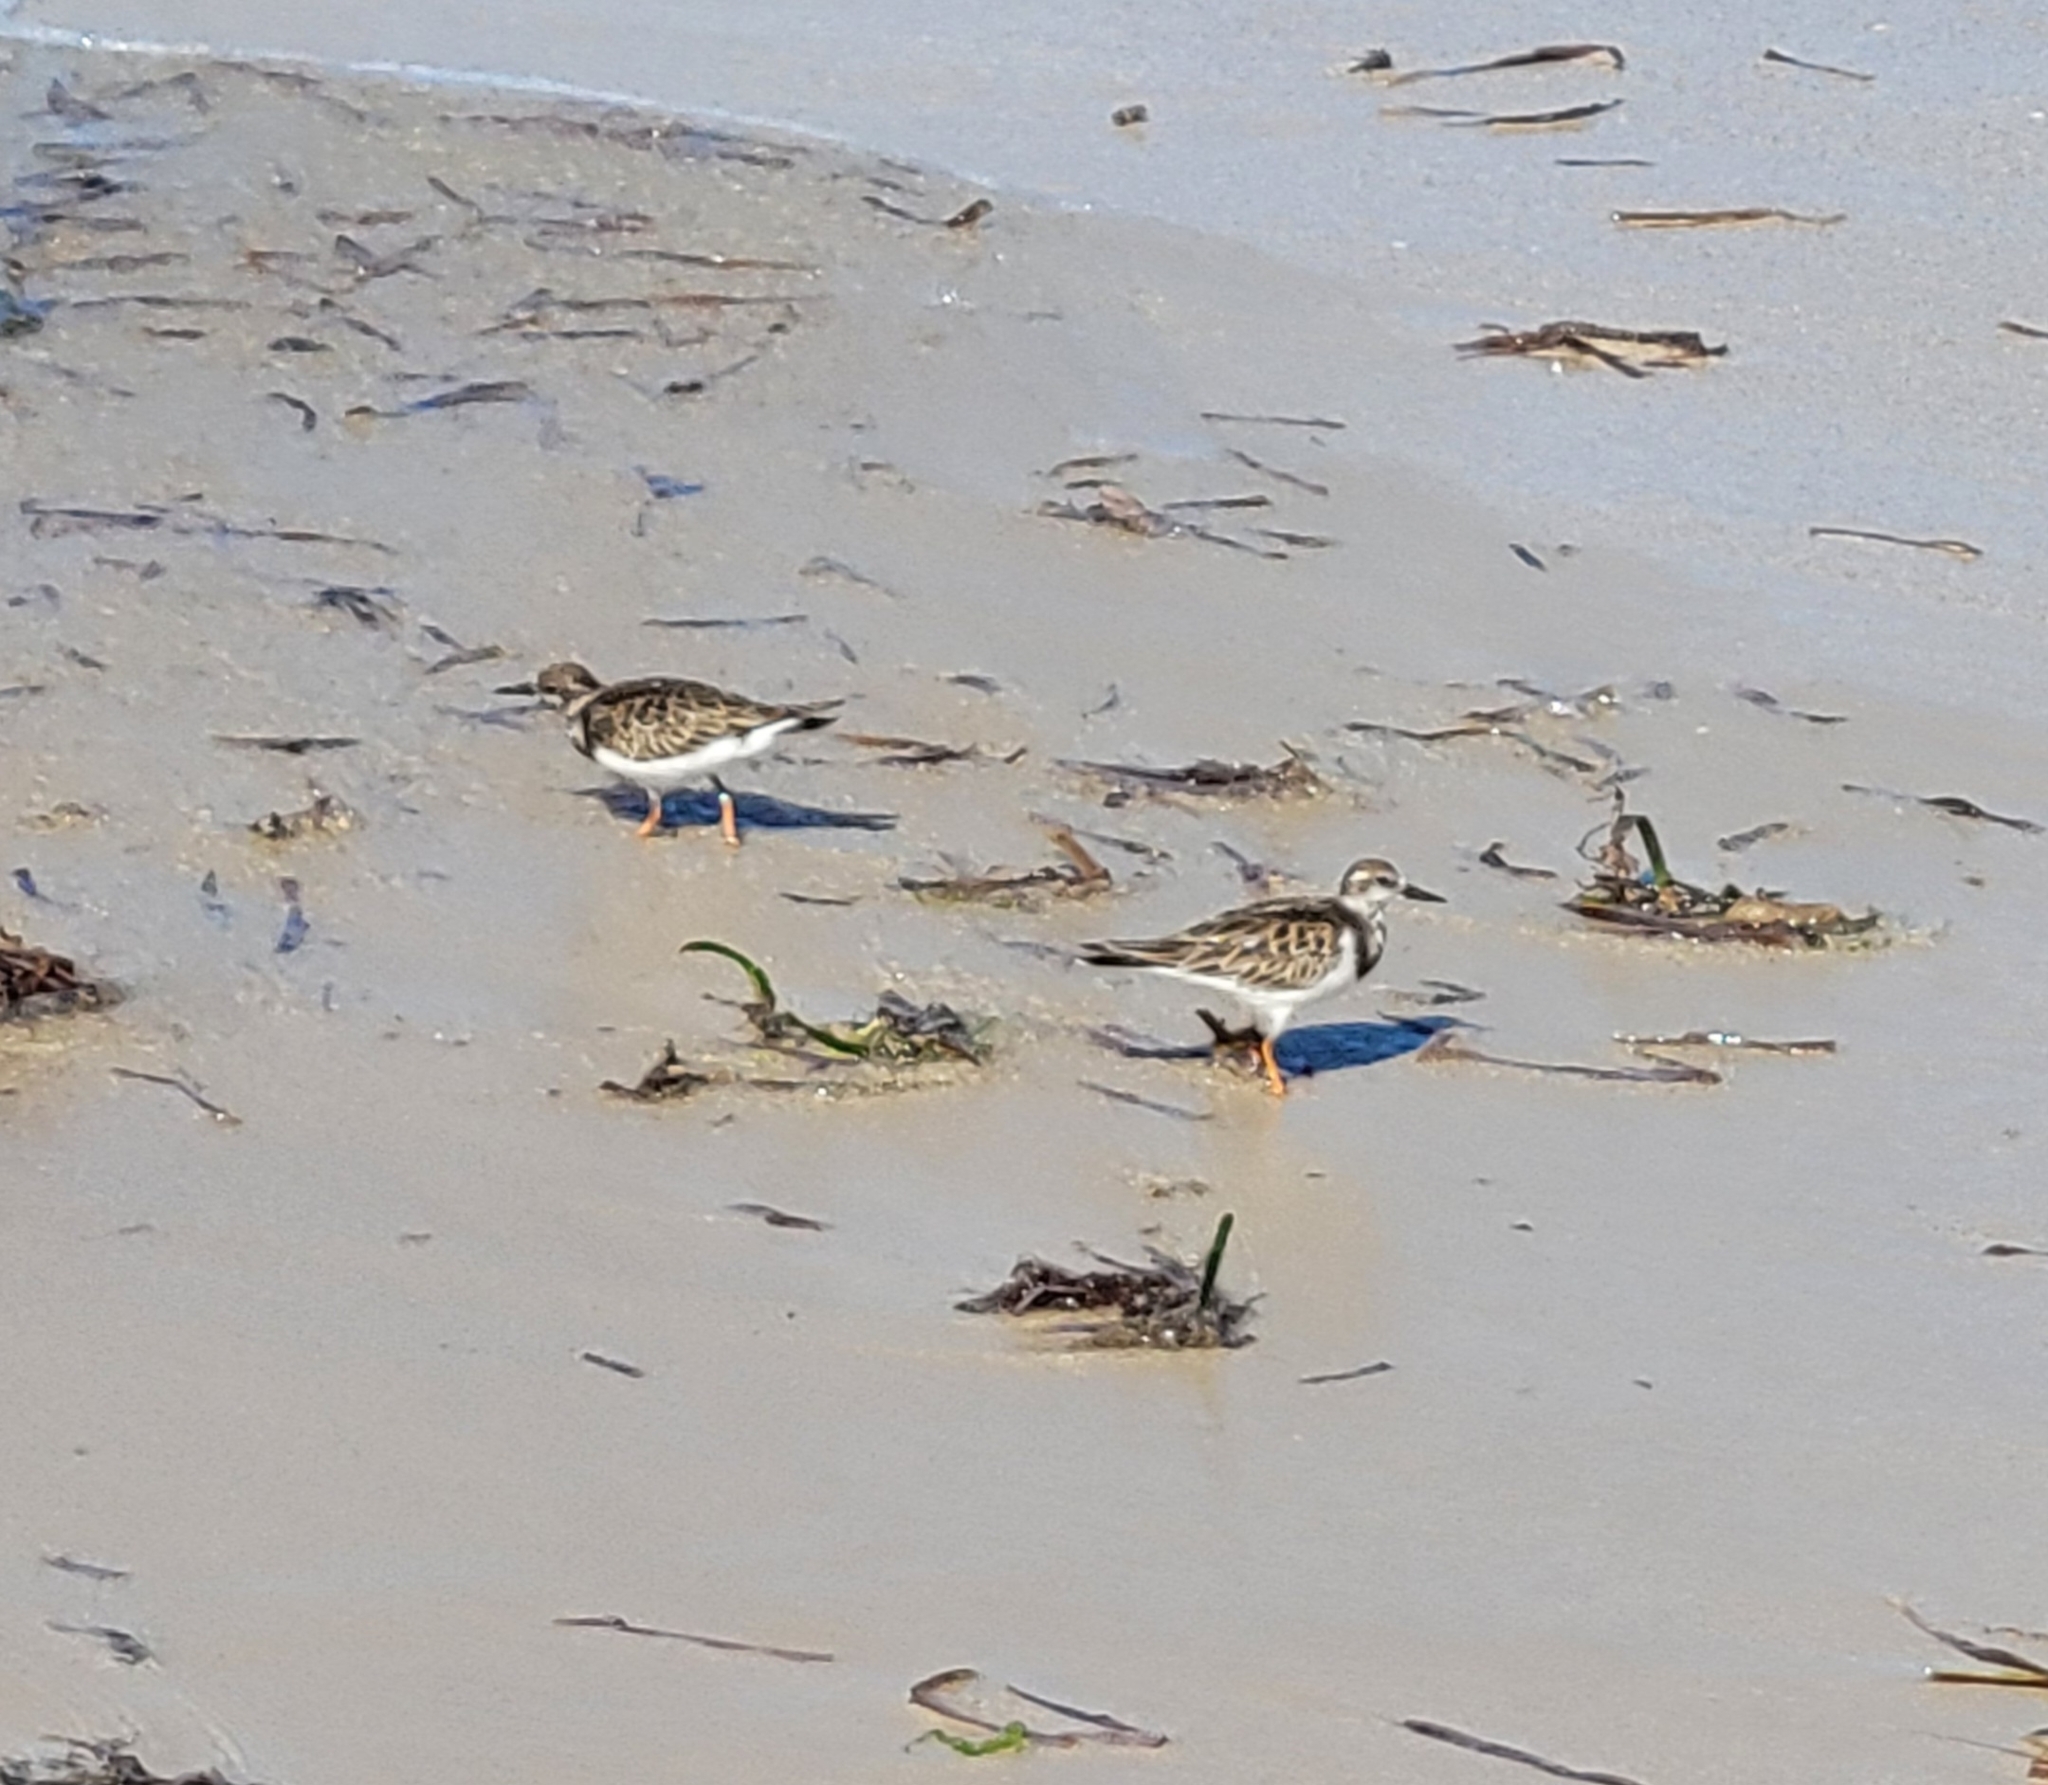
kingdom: Animalia
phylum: Chordata
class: Aves
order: Charadriiformes
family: Scolopacidae
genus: Arenaria
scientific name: Arenaria interpres
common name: Ruddy turnstone
